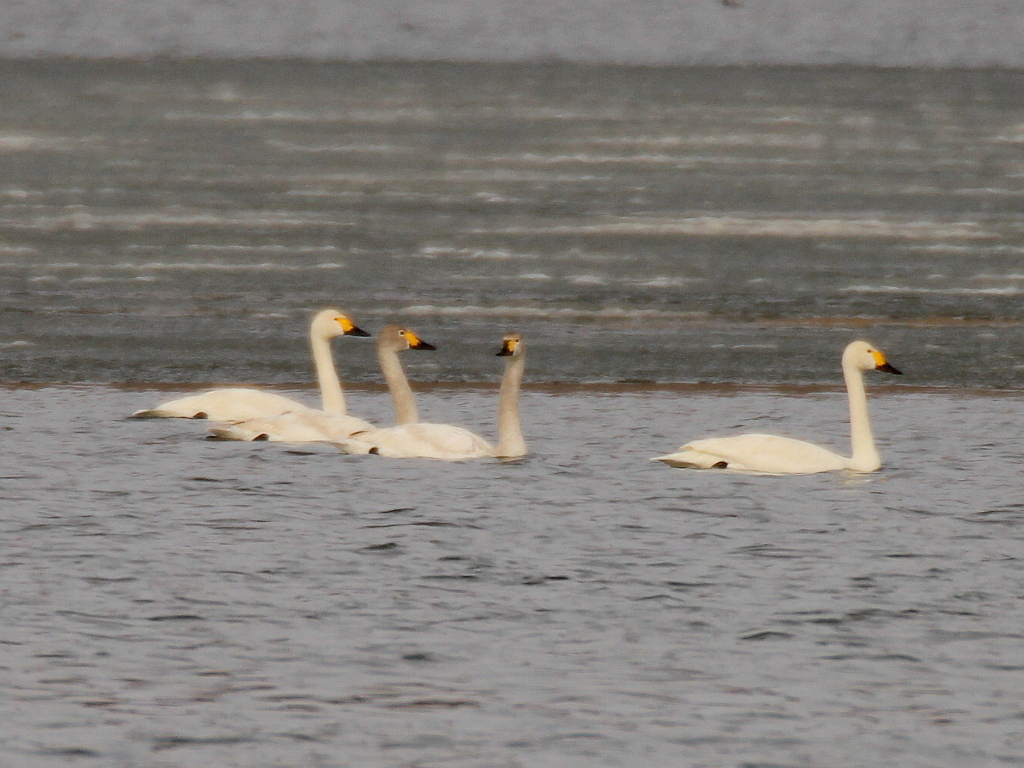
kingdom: Animalia
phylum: Chordata
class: Aves
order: Anseriformes
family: Anatidae
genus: Cygnus
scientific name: Cygnus columbianus
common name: Tundra swan
